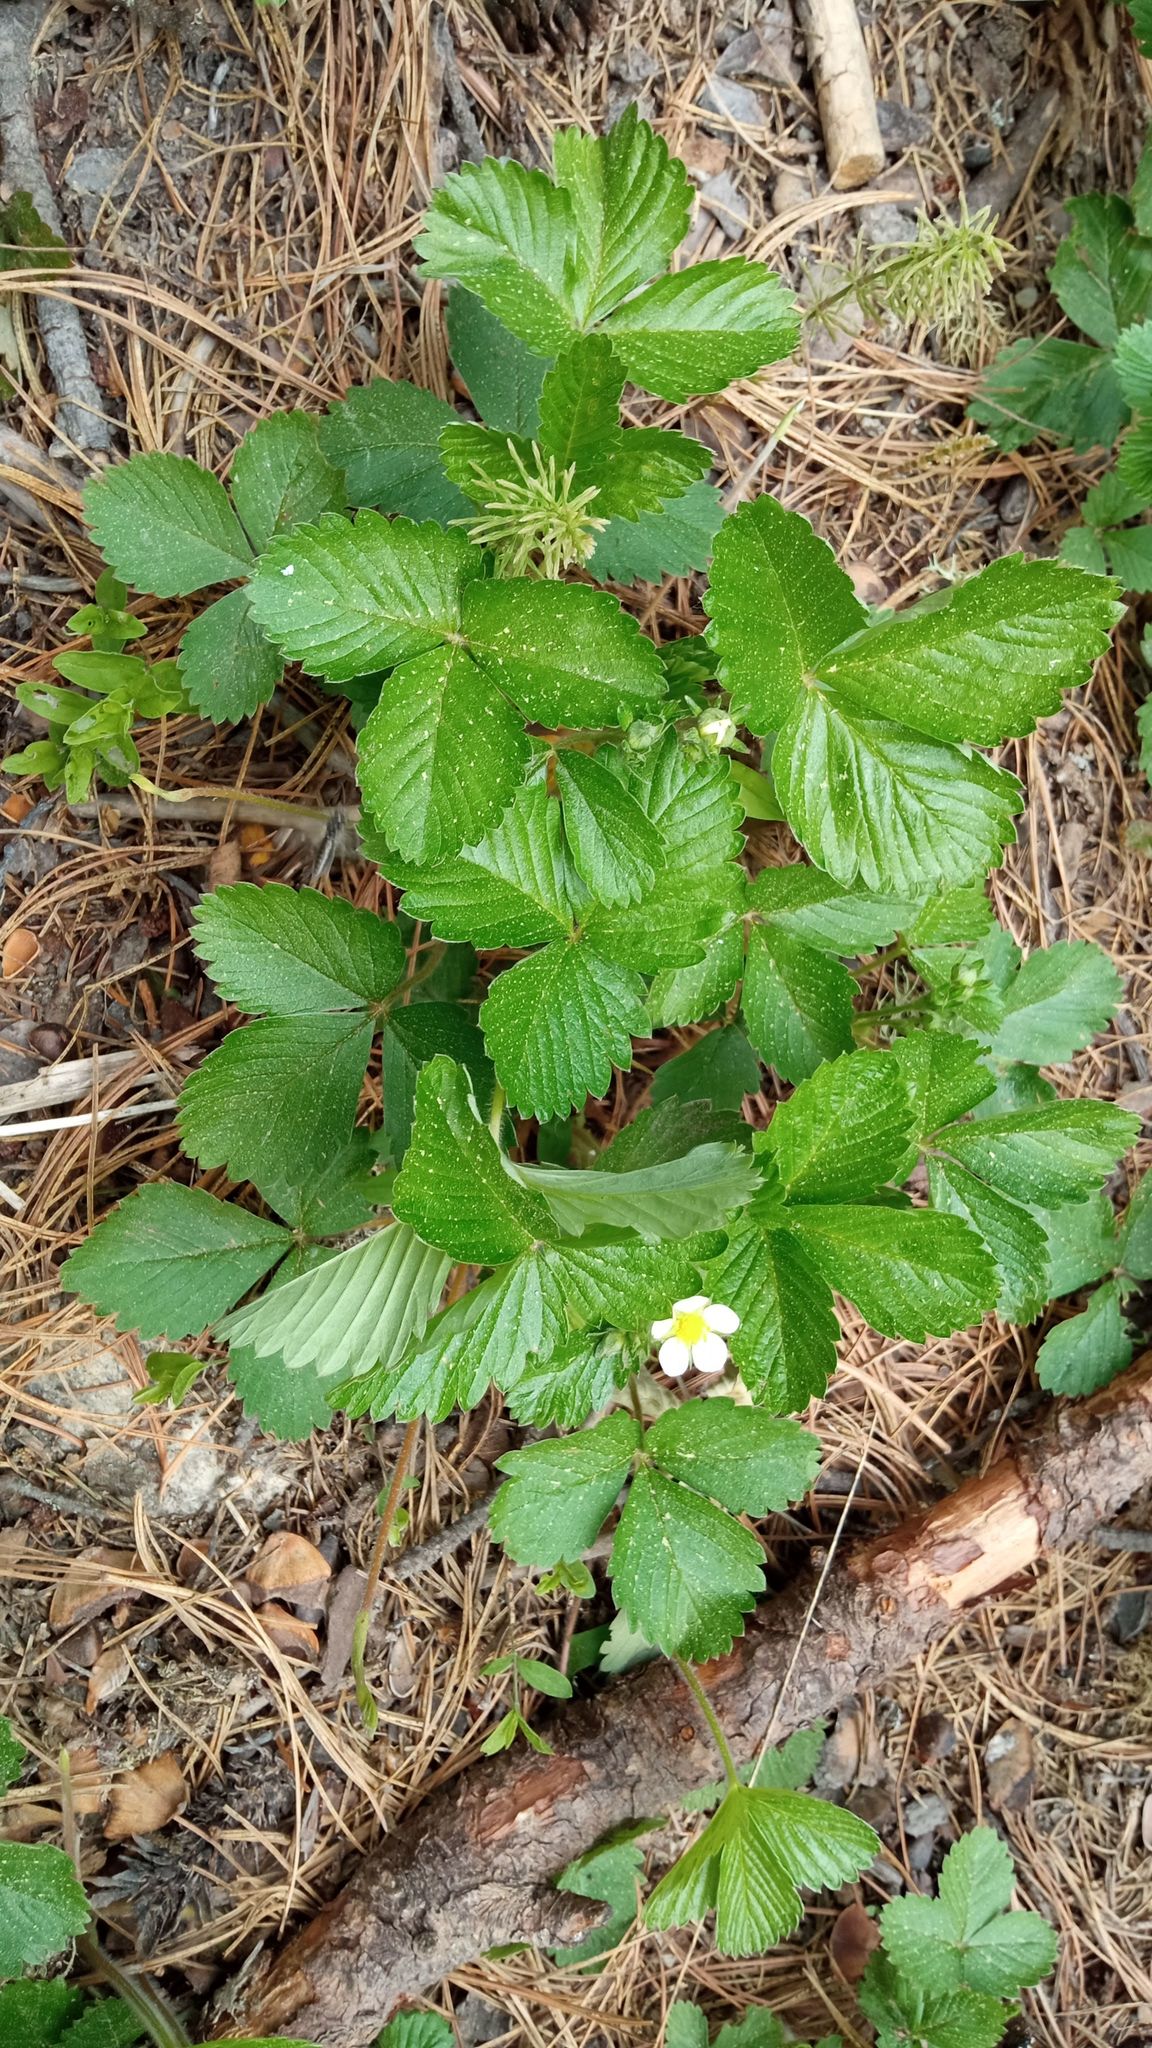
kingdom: Plantae
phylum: Tracheophyta
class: Magnoliopsida
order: Rosales
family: Rosaceae
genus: Fragaria
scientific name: Fragaria vesca
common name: Wild strawberry
